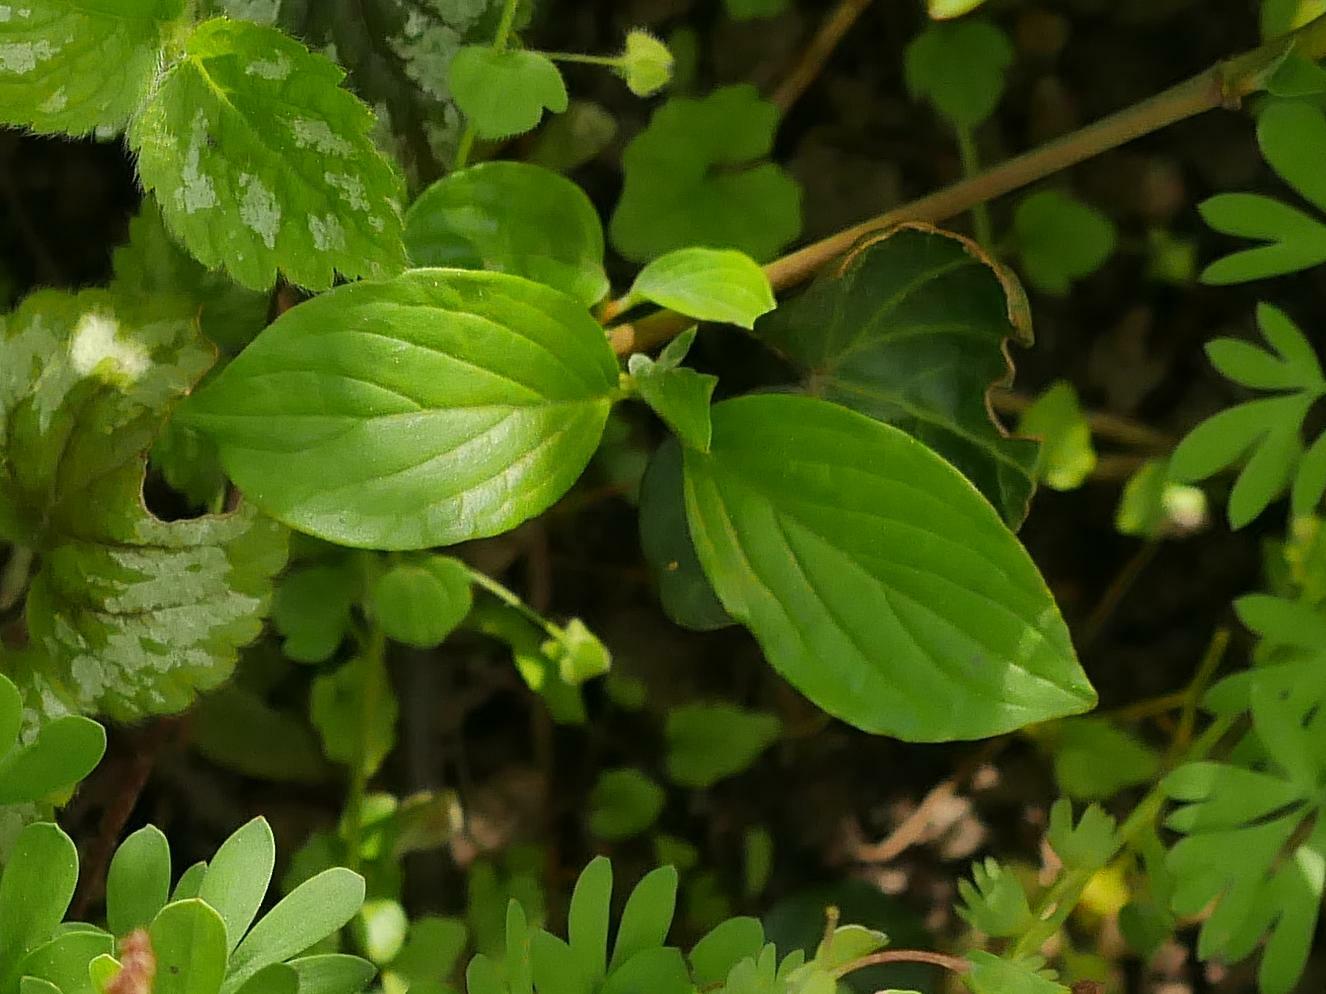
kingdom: Plantae
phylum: Tracheophyta
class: Magnoliopsida
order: Cornales
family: Cornaceae
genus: Cornus
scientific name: Cornus sanguinea
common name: Dogwood
